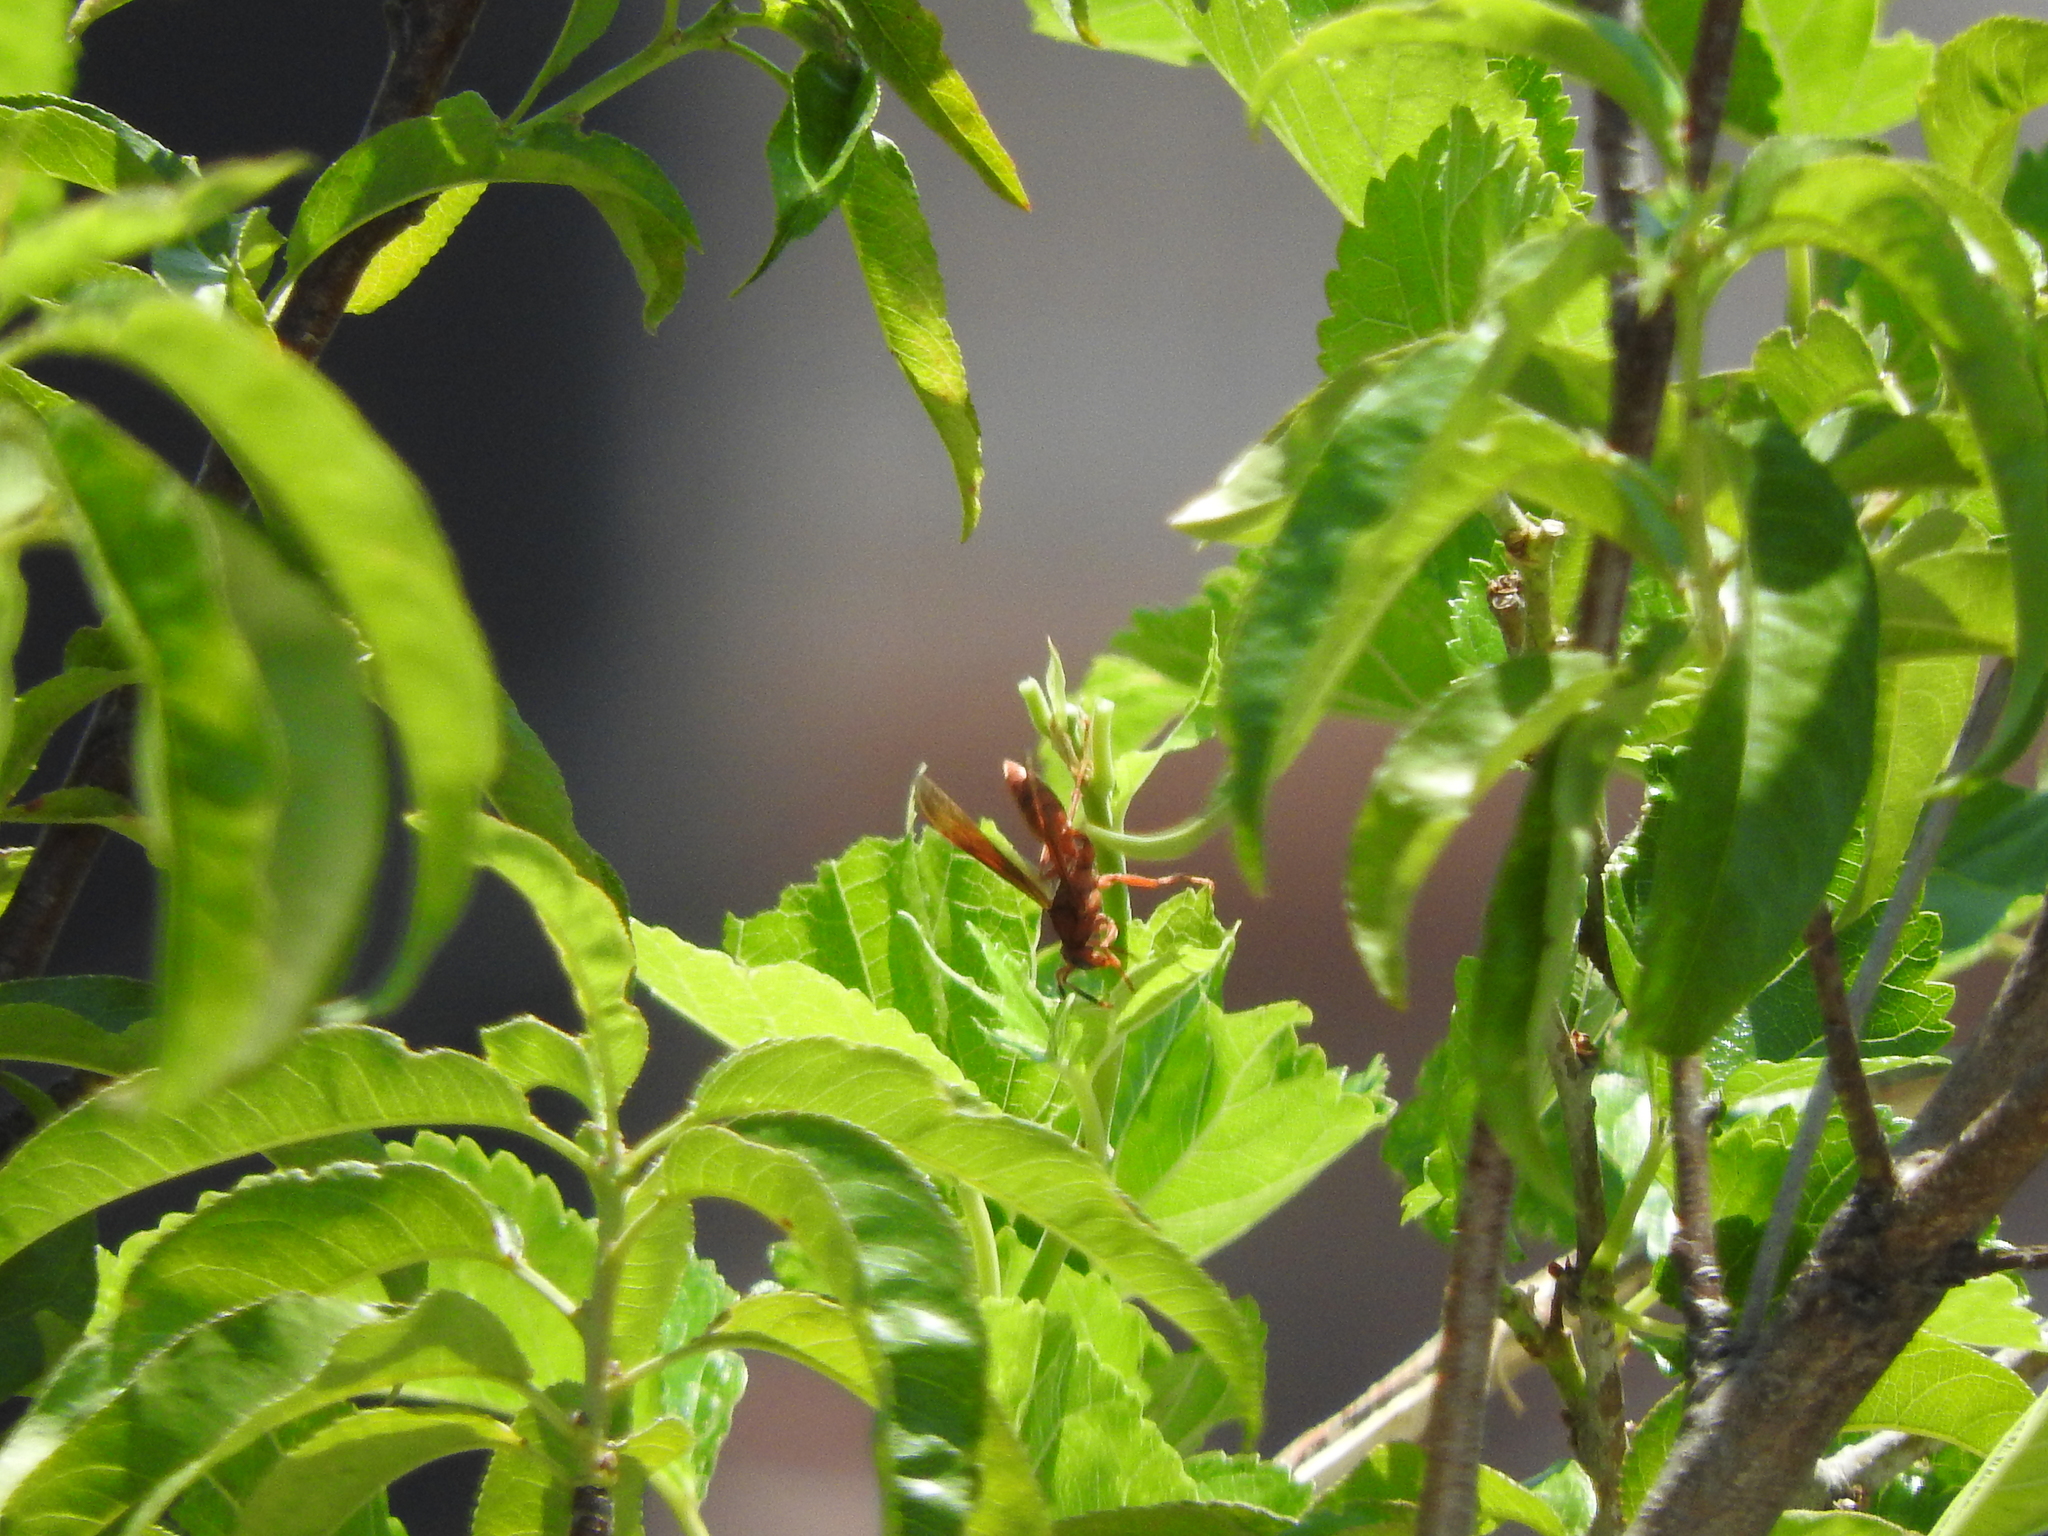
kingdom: Animalia
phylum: Arthropoda
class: Insecta
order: Hymenoptera
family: Eumenidae
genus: Polistes
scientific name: Polistes canadensis
